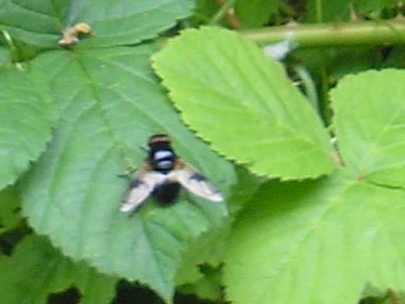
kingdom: Animalia
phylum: Arthropoda
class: Insecta
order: Diptera
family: Syrphidae
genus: Volucella
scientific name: Volucella pellucens
